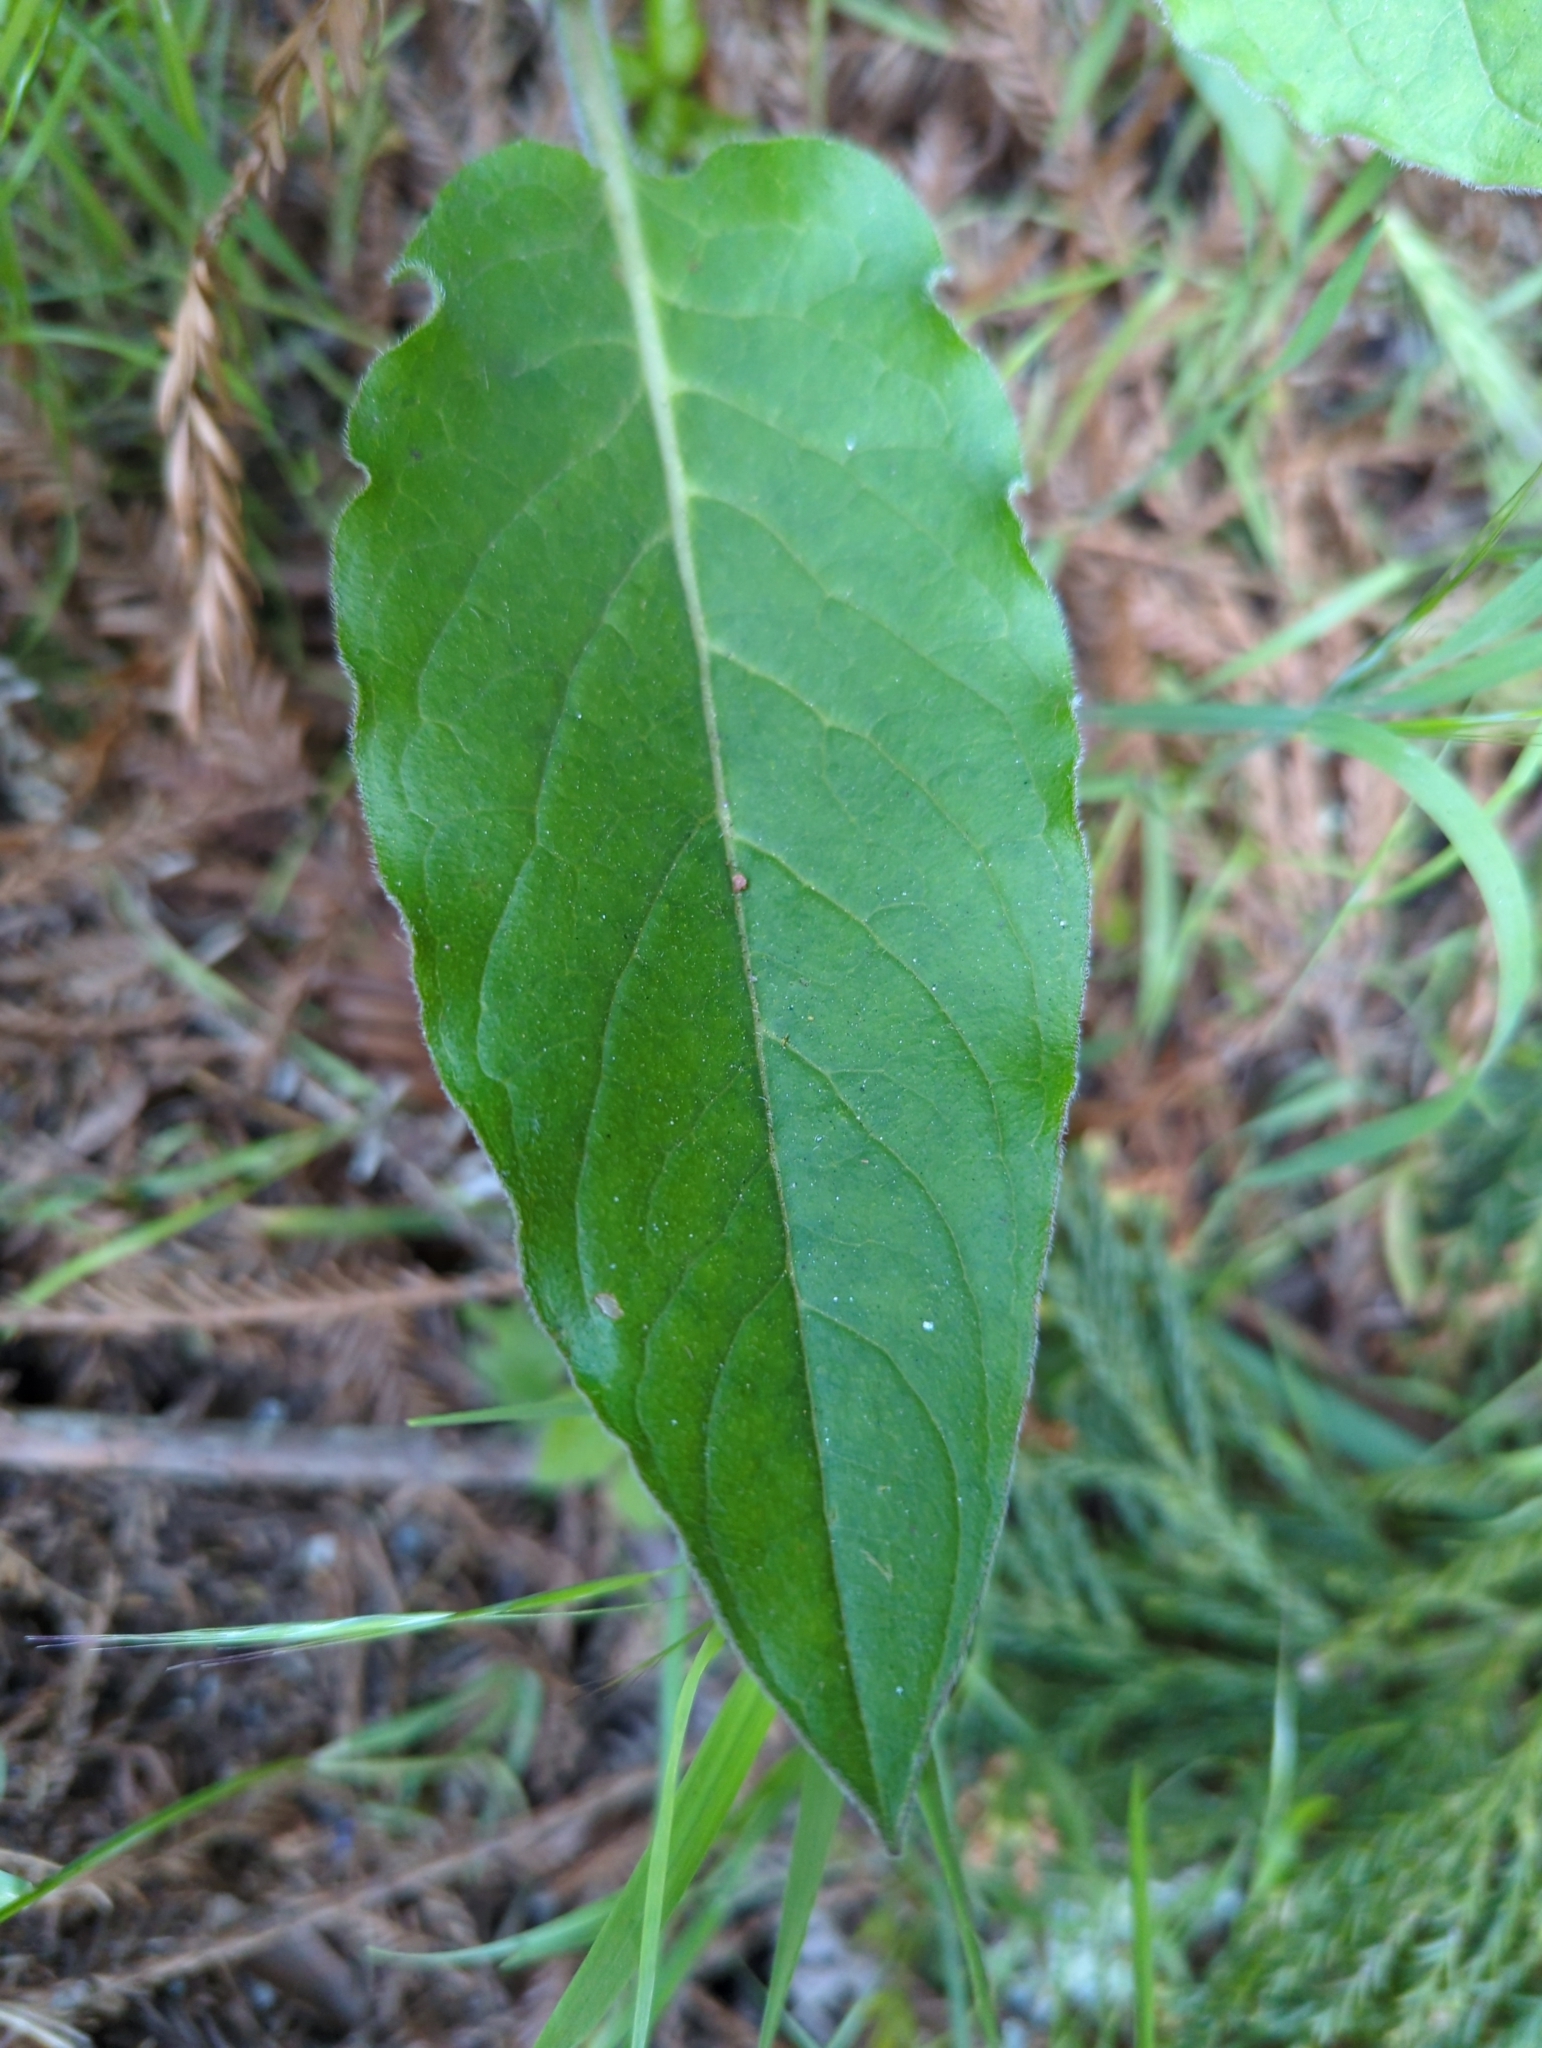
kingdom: Plantae
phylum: Tracheophyta
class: Magnoliopsida
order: Boraginales
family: Boraginaceae
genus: Adelinia
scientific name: Adelinia grande
